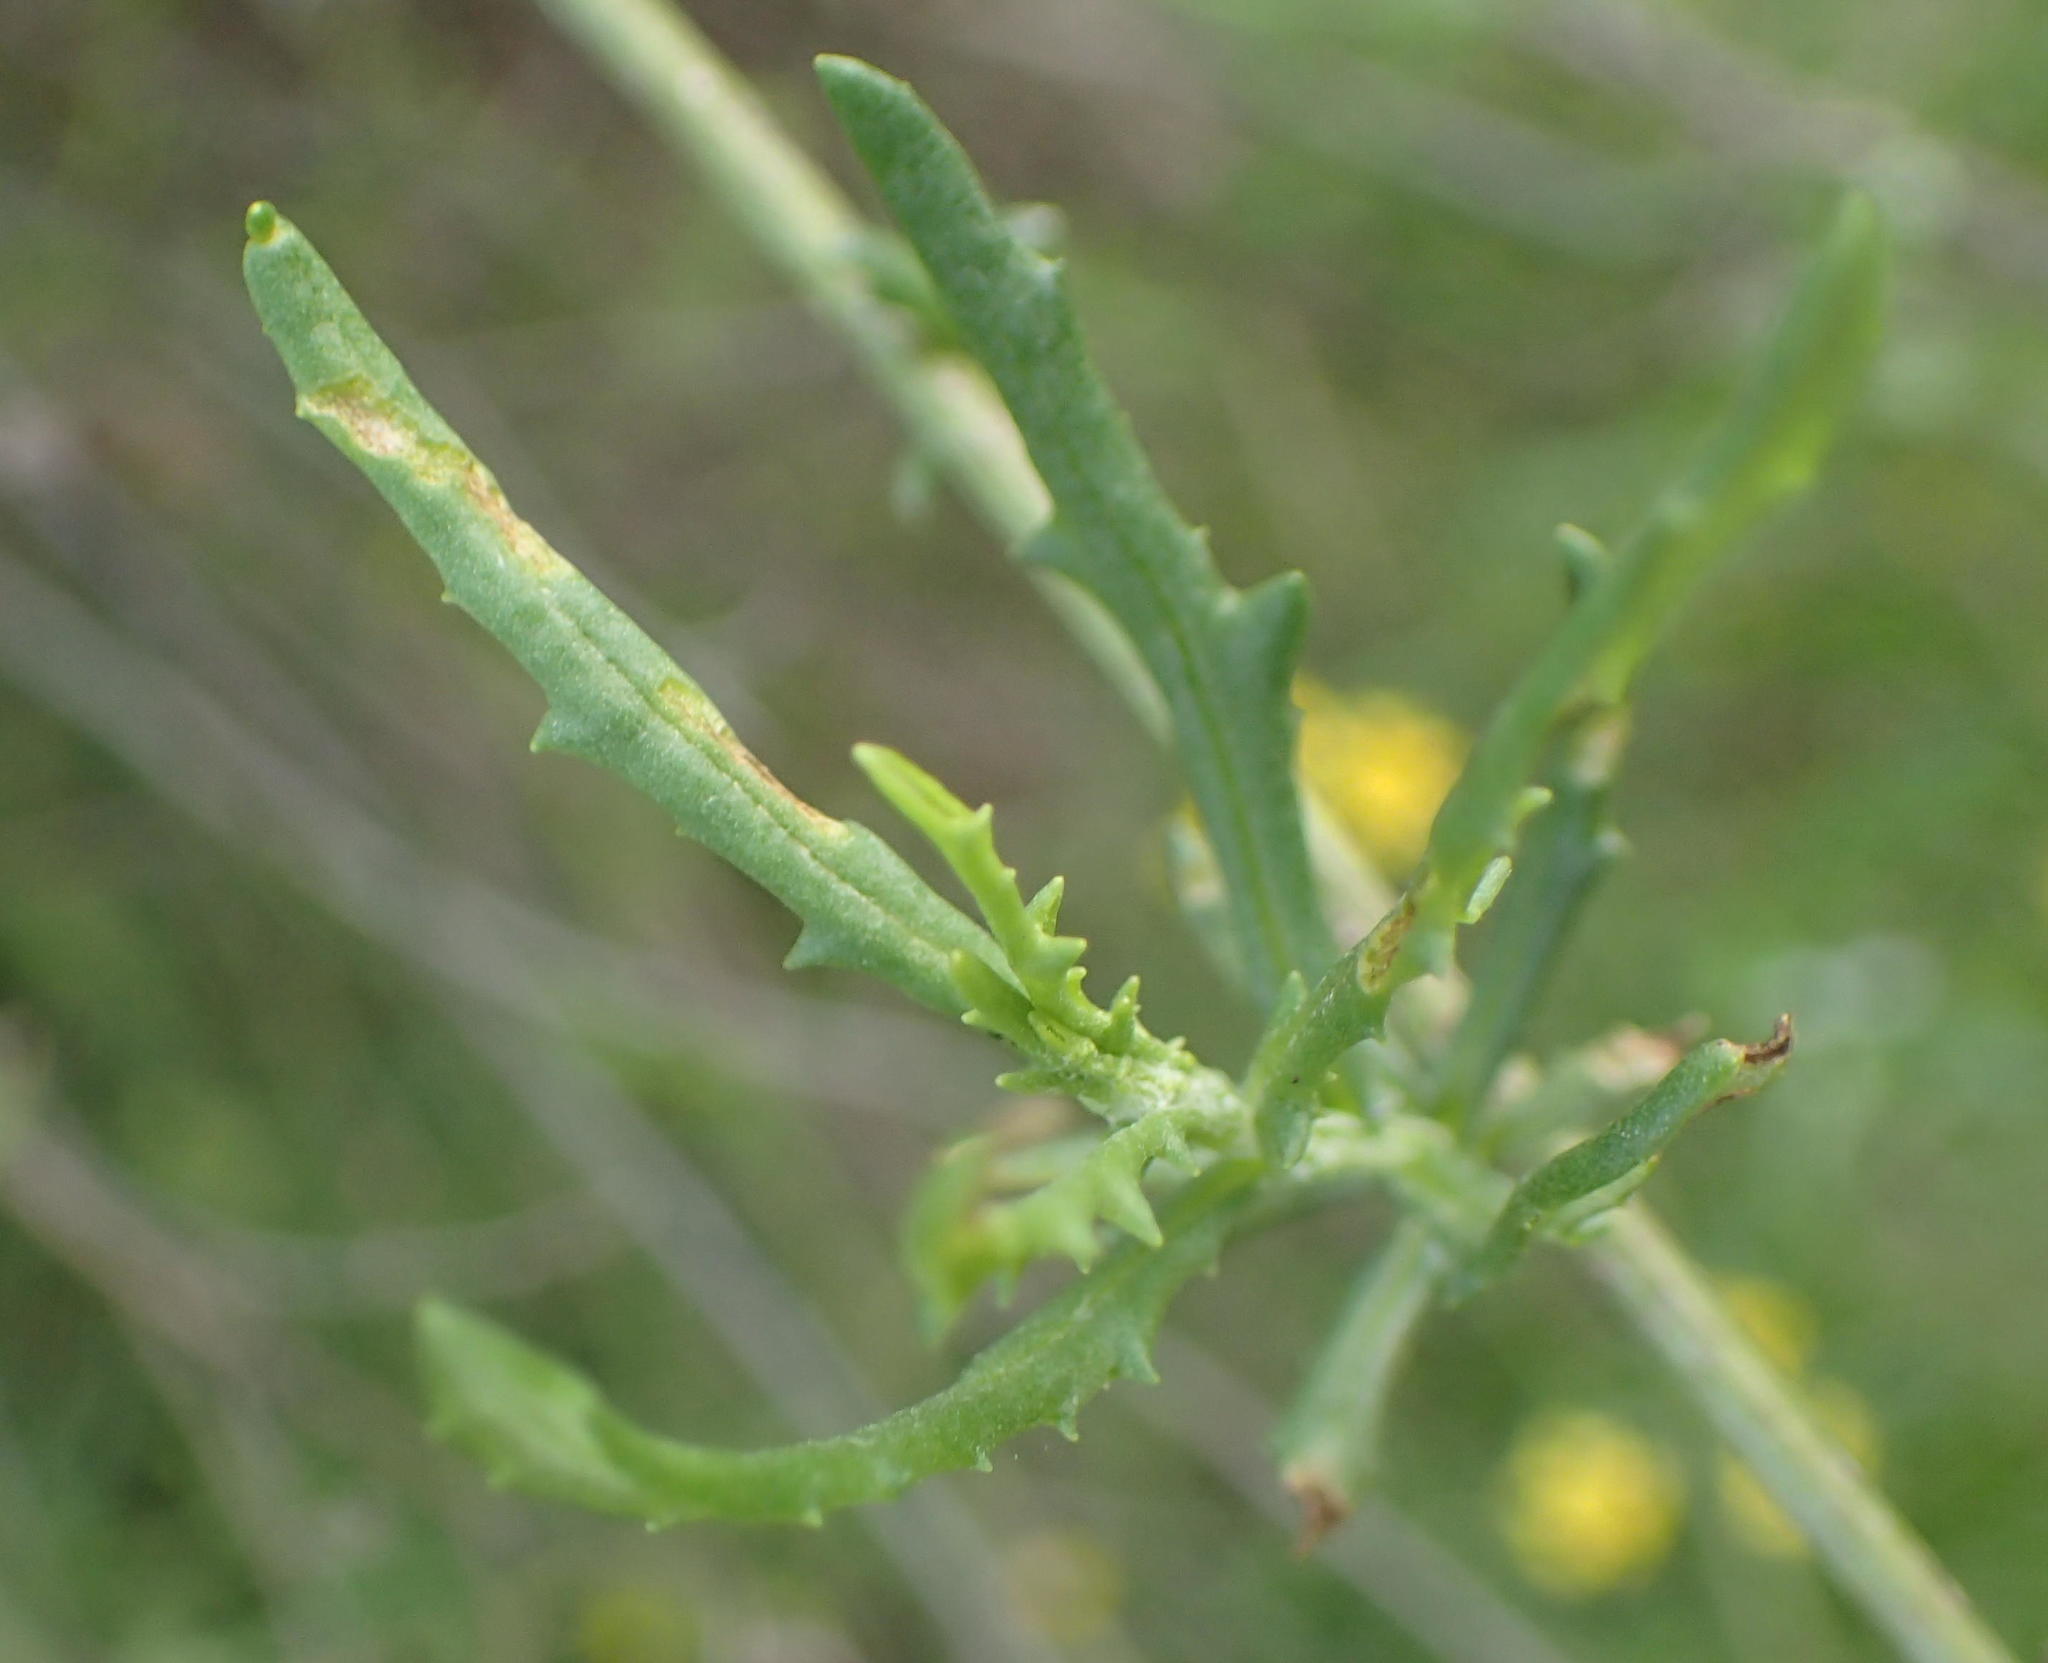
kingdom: Plantae
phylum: Tracheophyta
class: Magnoliopsida
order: Asterales
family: Asteraceae
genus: Senecio
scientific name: Senecio burchellii
